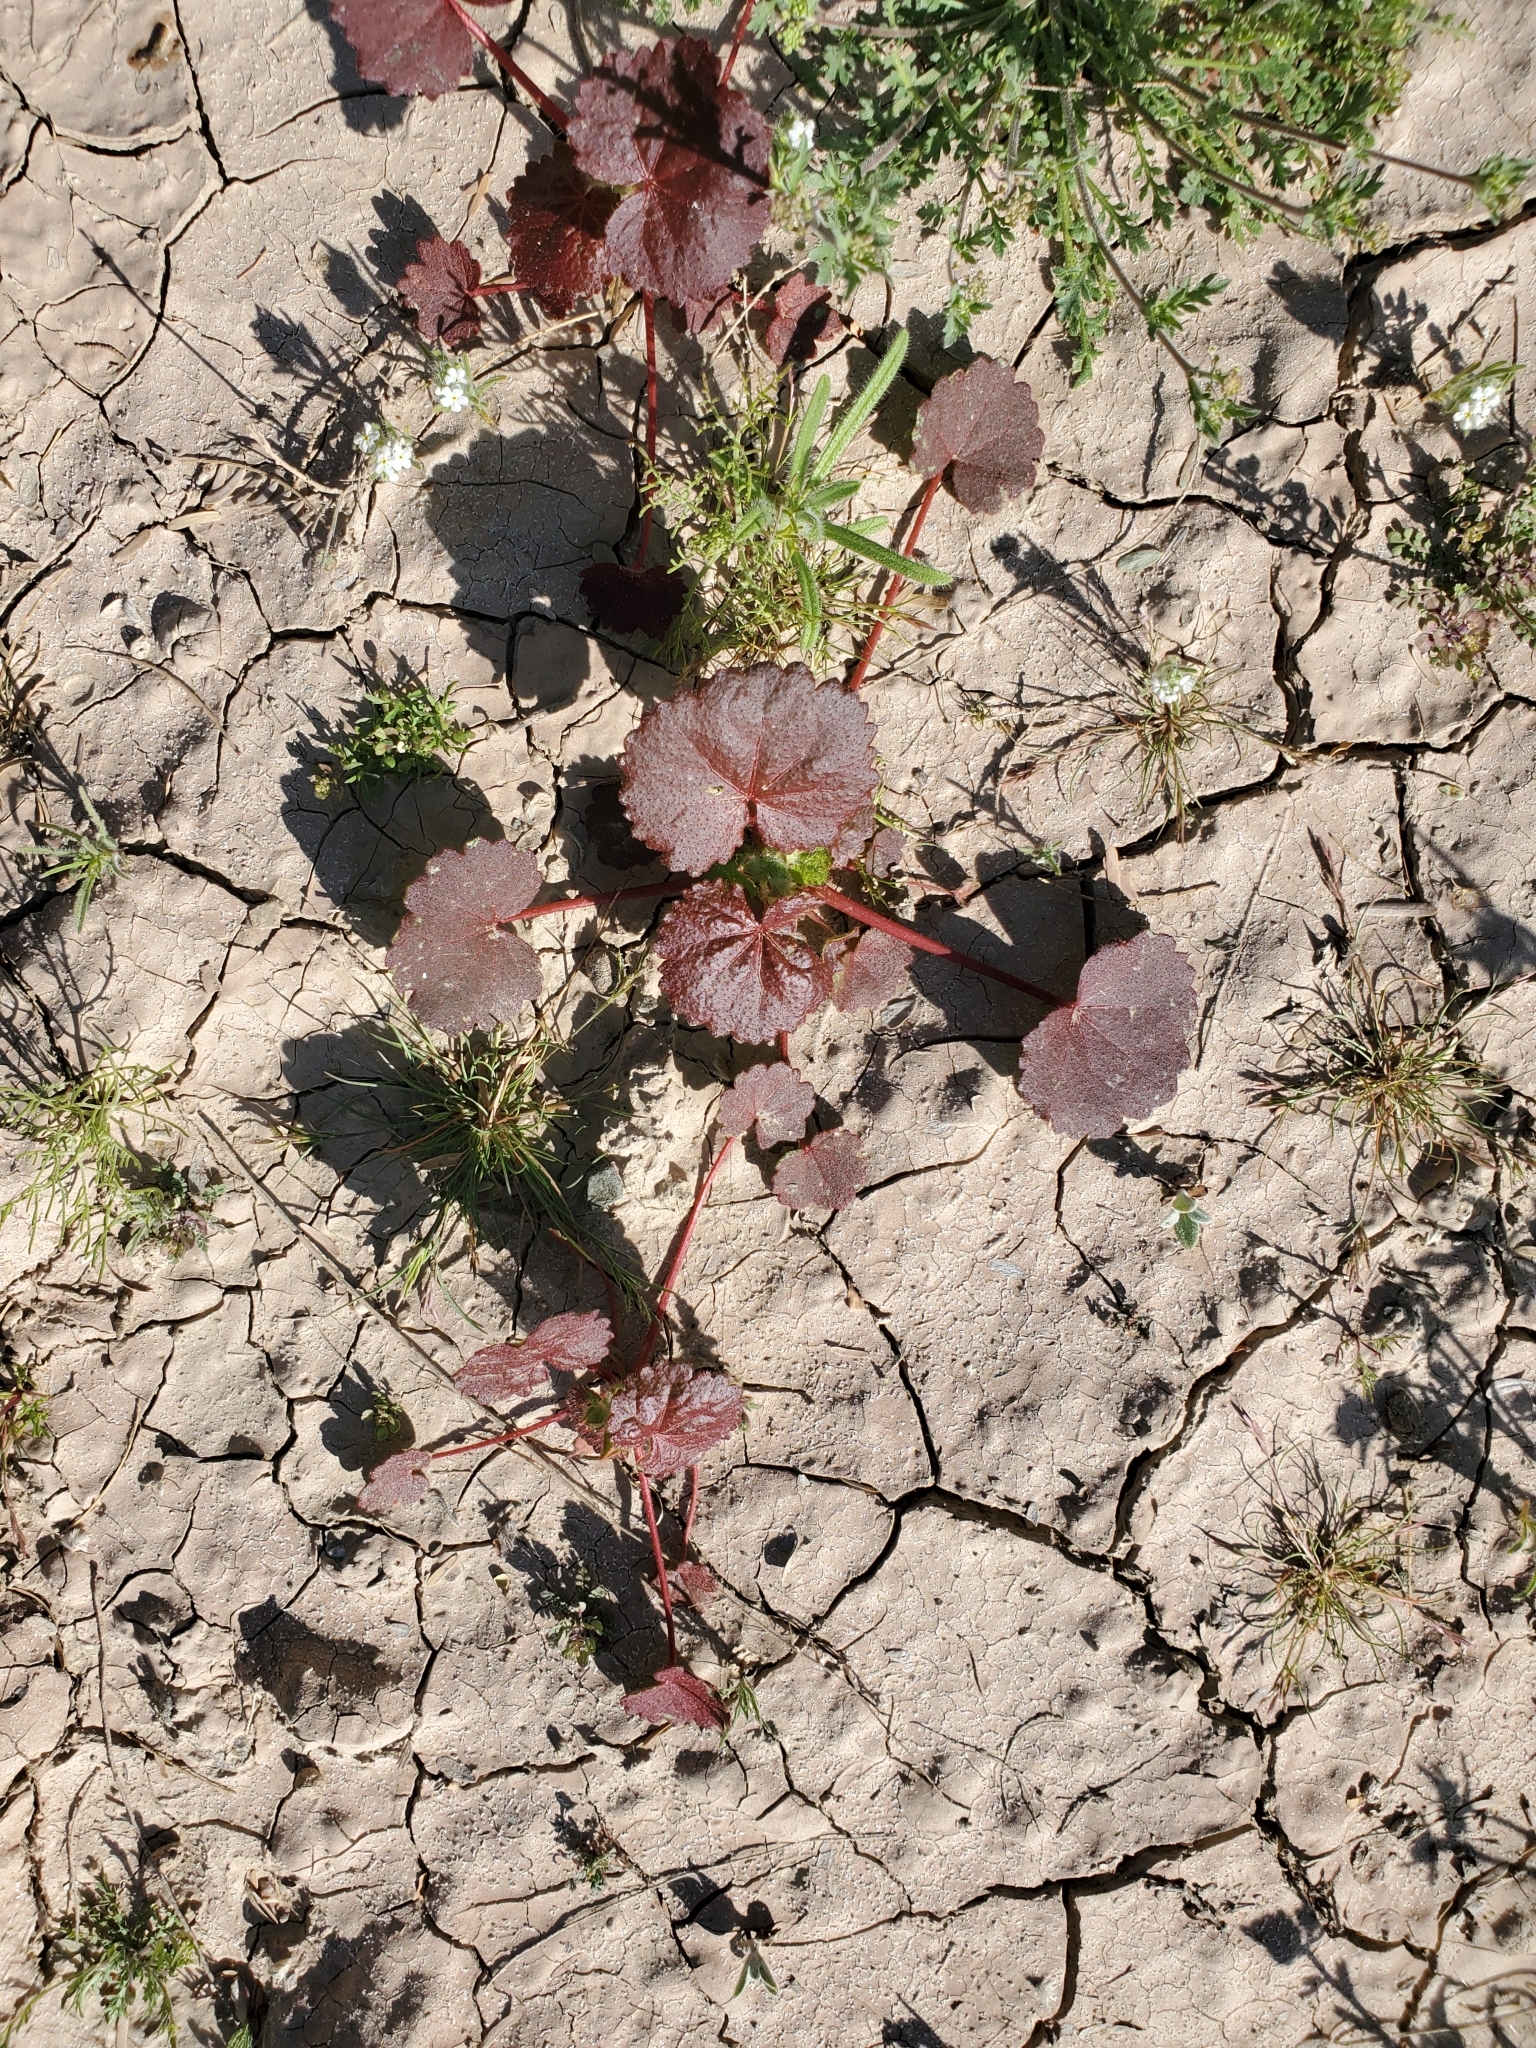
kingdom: Plantae
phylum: Tracheophyta
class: Magnoliopsida
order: Malvales
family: Malvaceae
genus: Eremalche
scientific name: Eremalche rotundifolia
